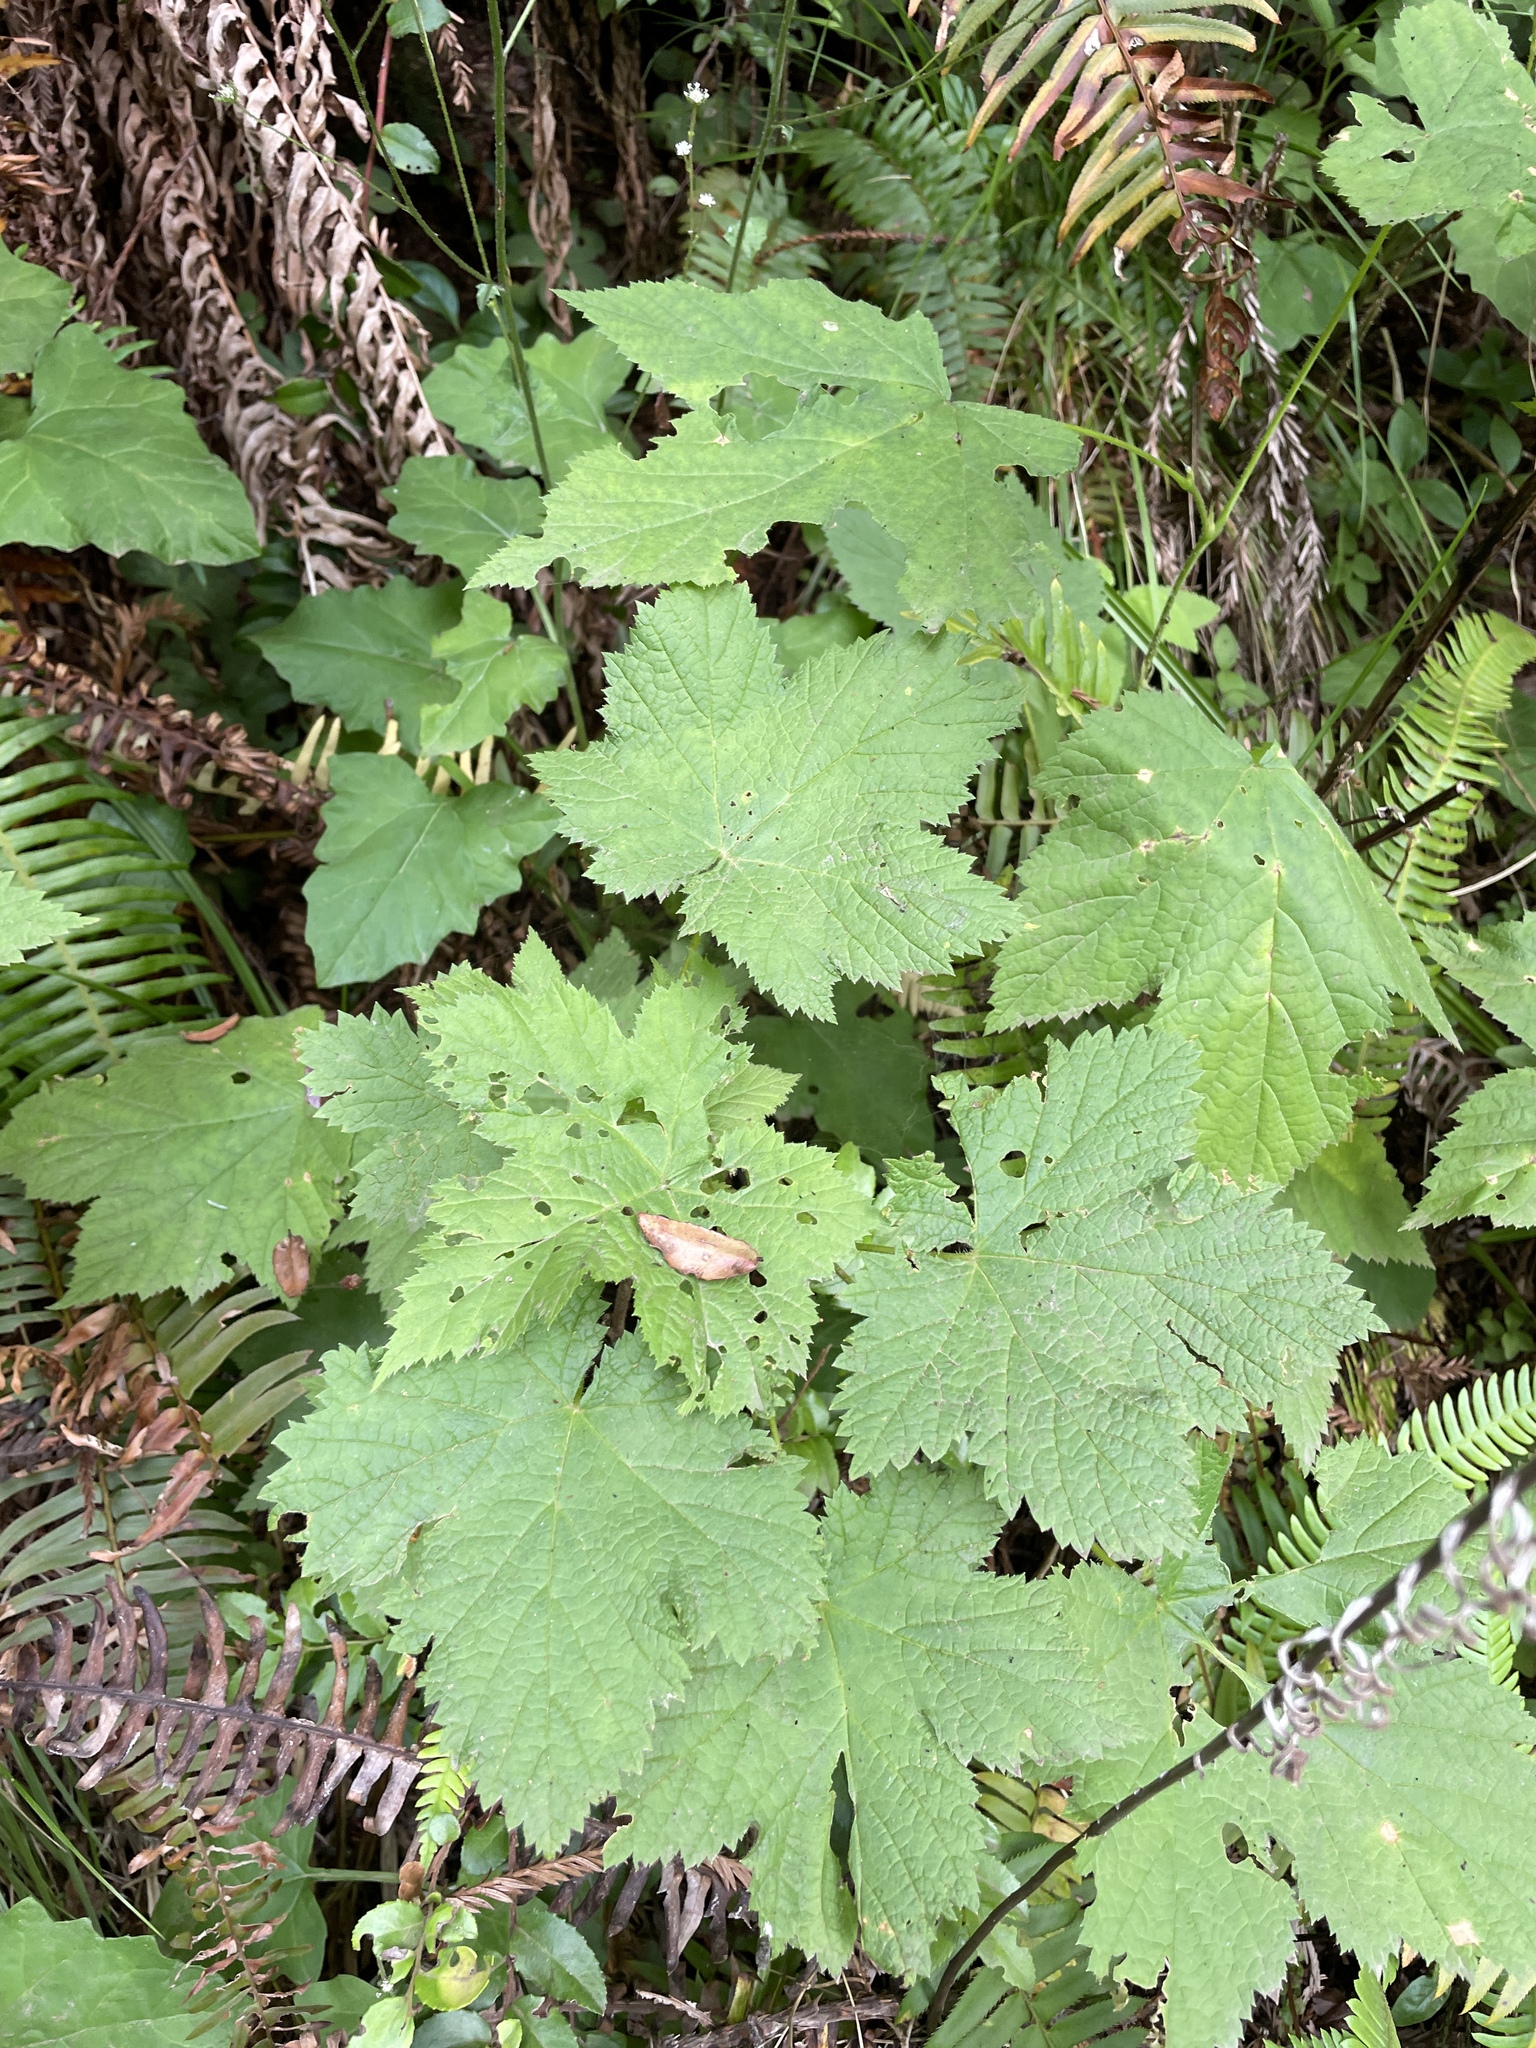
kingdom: Plantae
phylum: Tracheophyta
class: Magnoliopsida
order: Rosales
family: Rosaceae
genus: Rubus
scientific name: Rubus parviflorus
